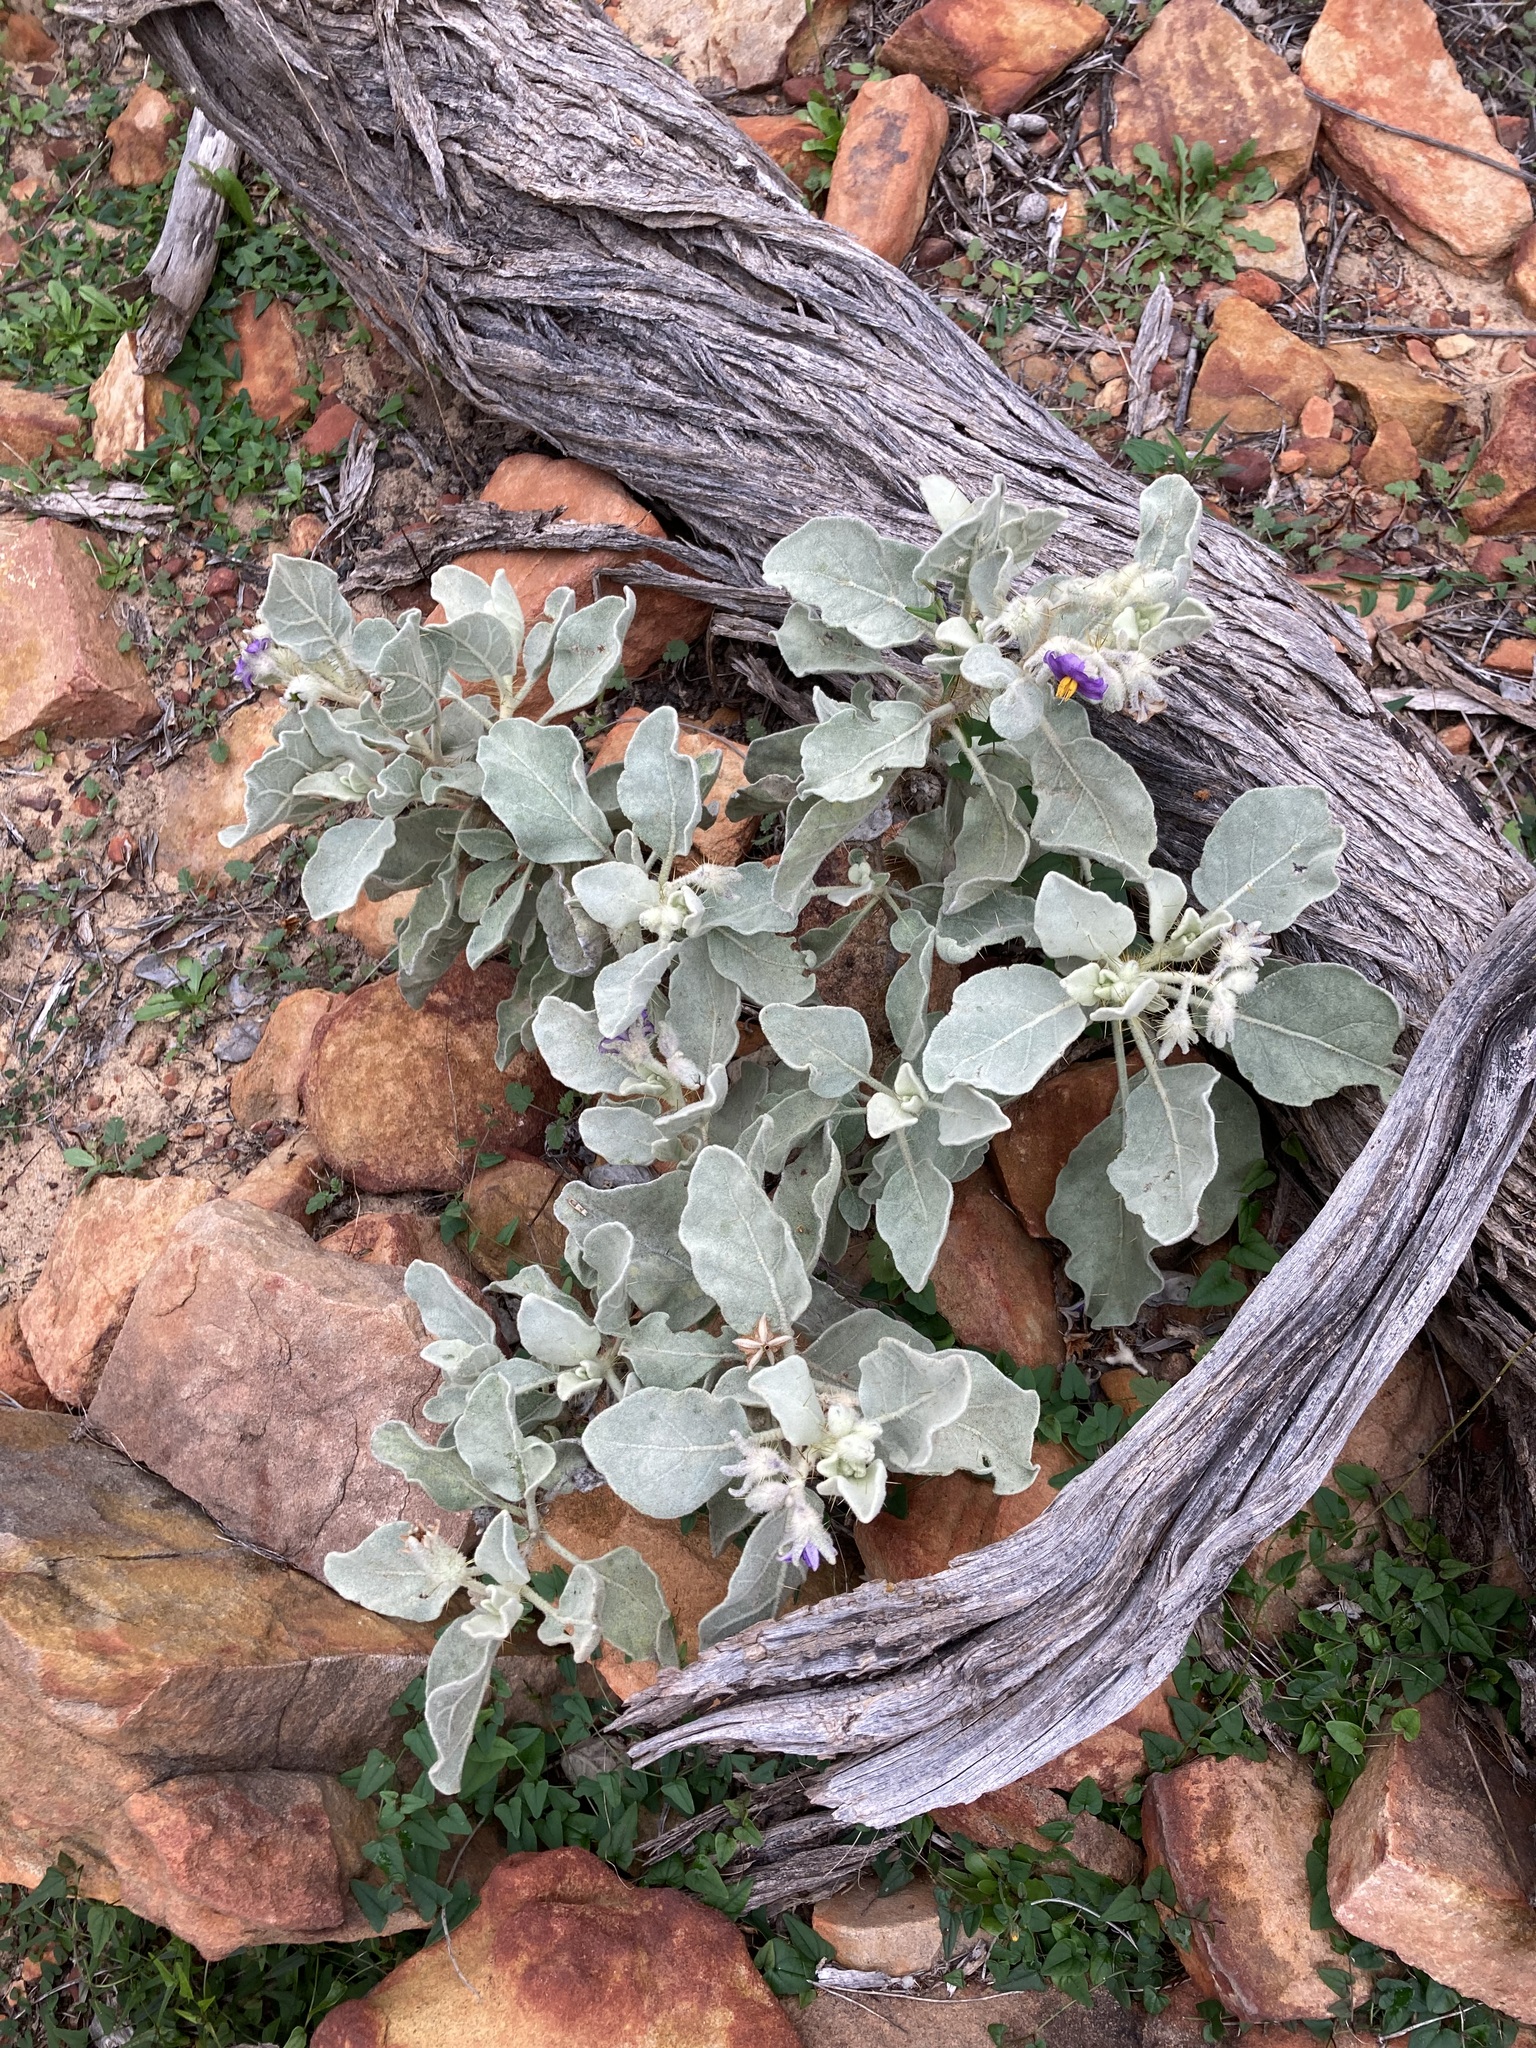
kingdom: Plantae
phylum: Tracheophyta
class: Magnoliopsida
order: Solanales
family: Solanaceae
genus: Solanum
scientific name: Solanum lasiophyllum
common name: Flannelbush
